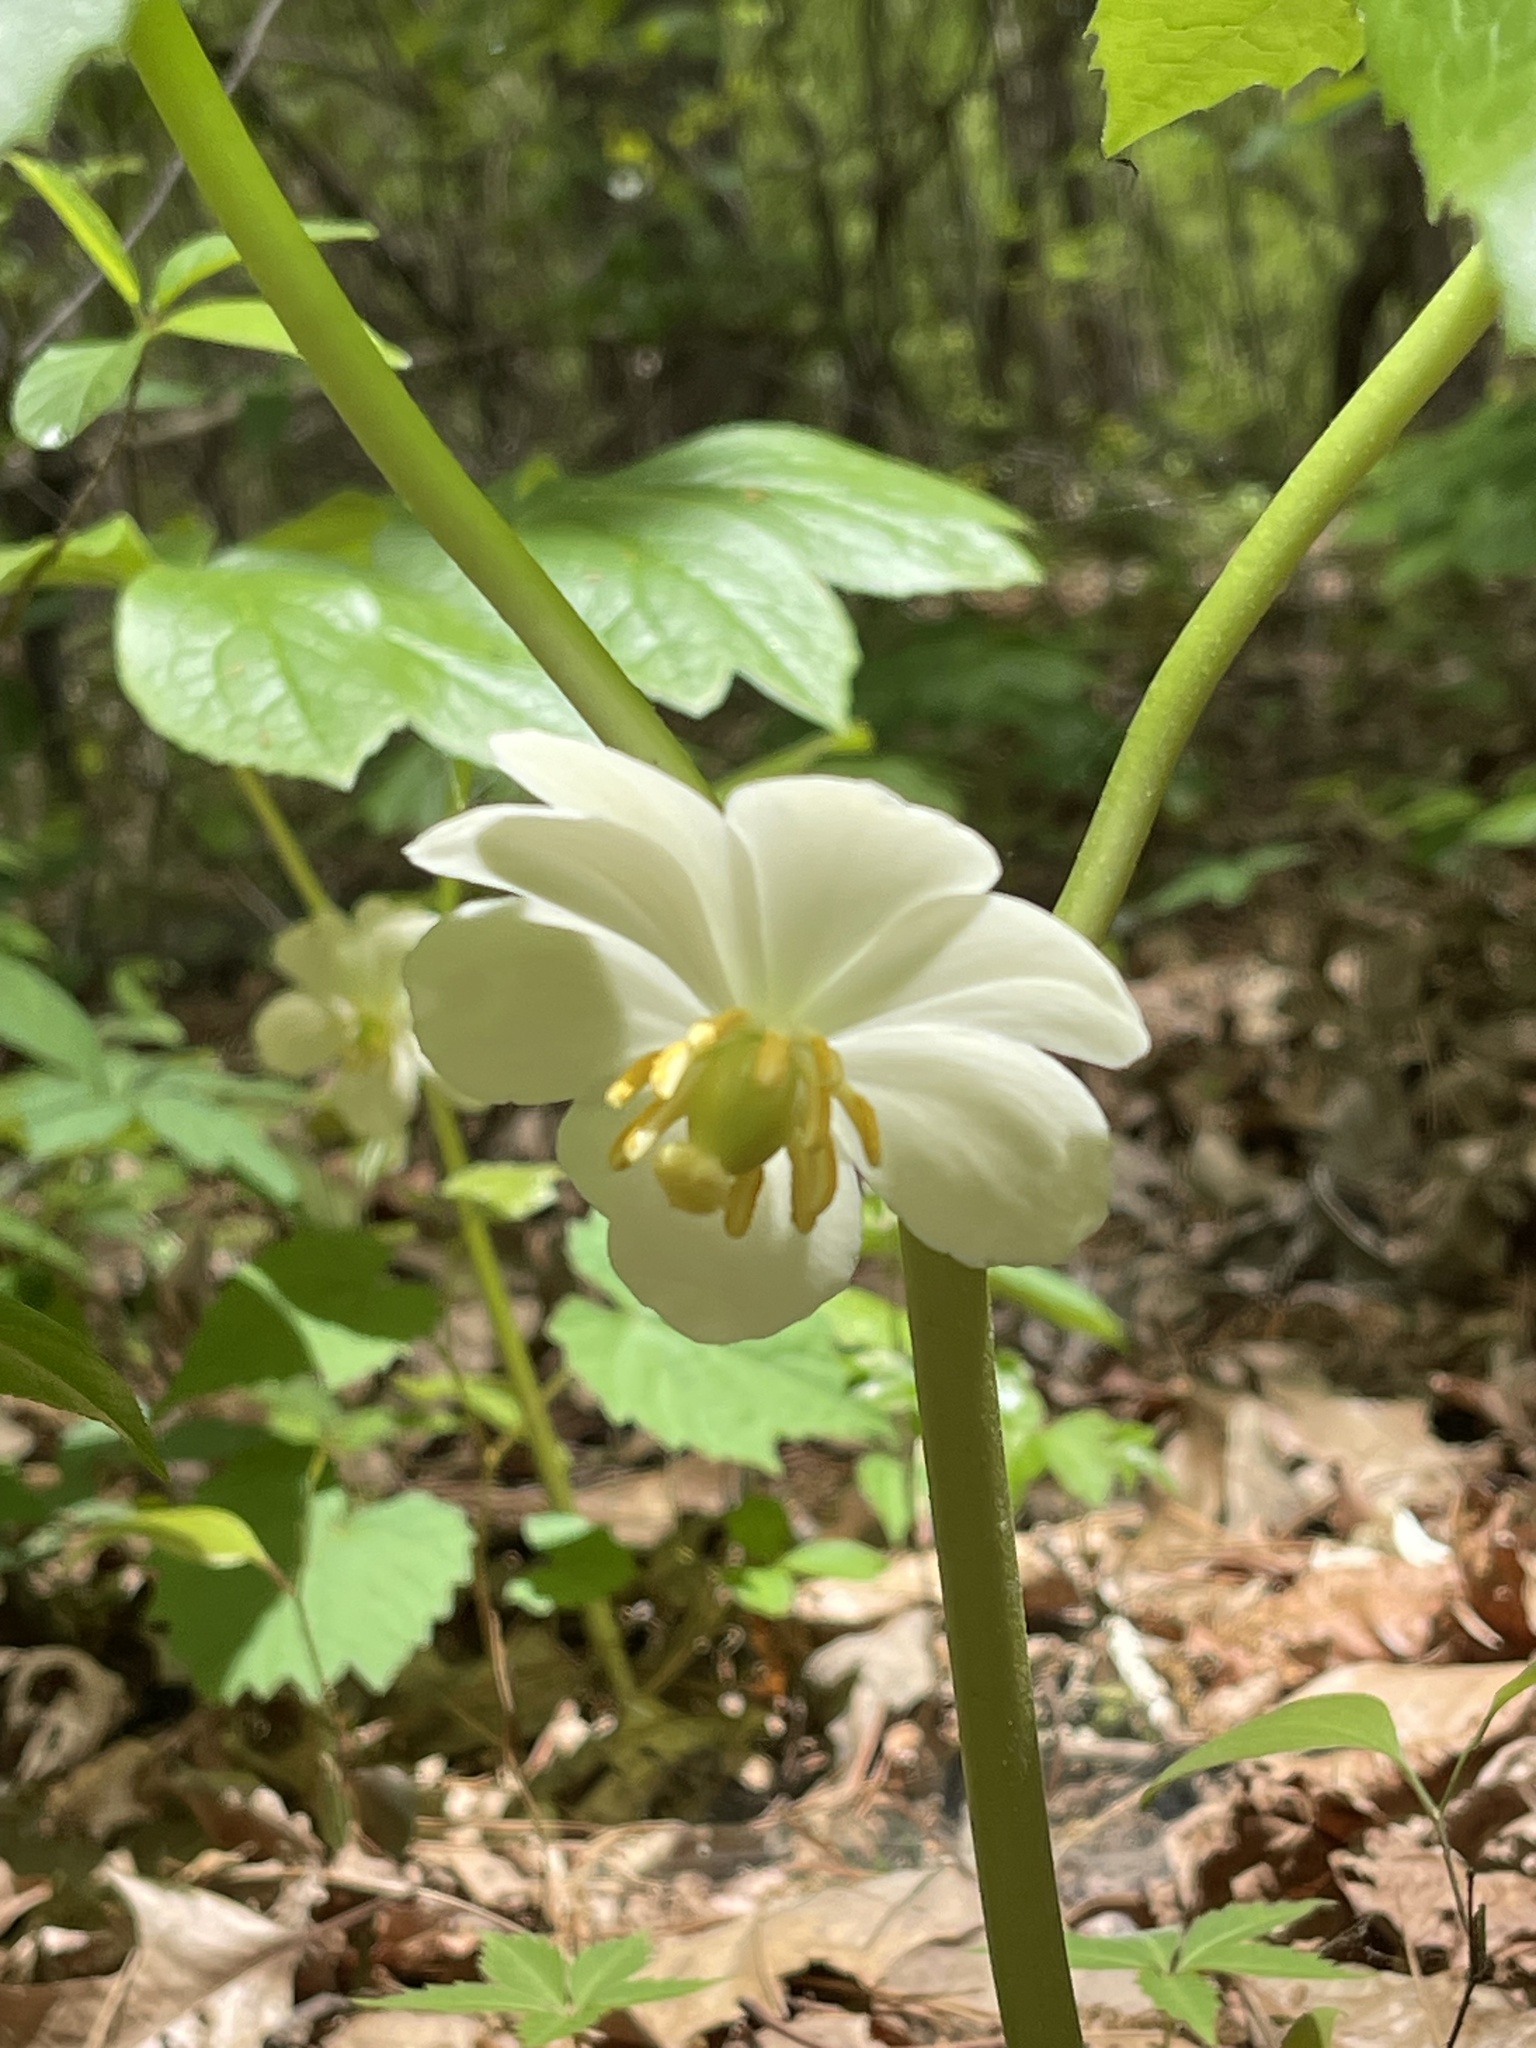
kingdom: Plantae
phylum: Tracheophyta
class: Magnoliopsida
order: Ranunculales
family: Berberidaceae
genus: Podophyllum
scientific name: Podophyllum peltatum
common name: Wild mandrake
